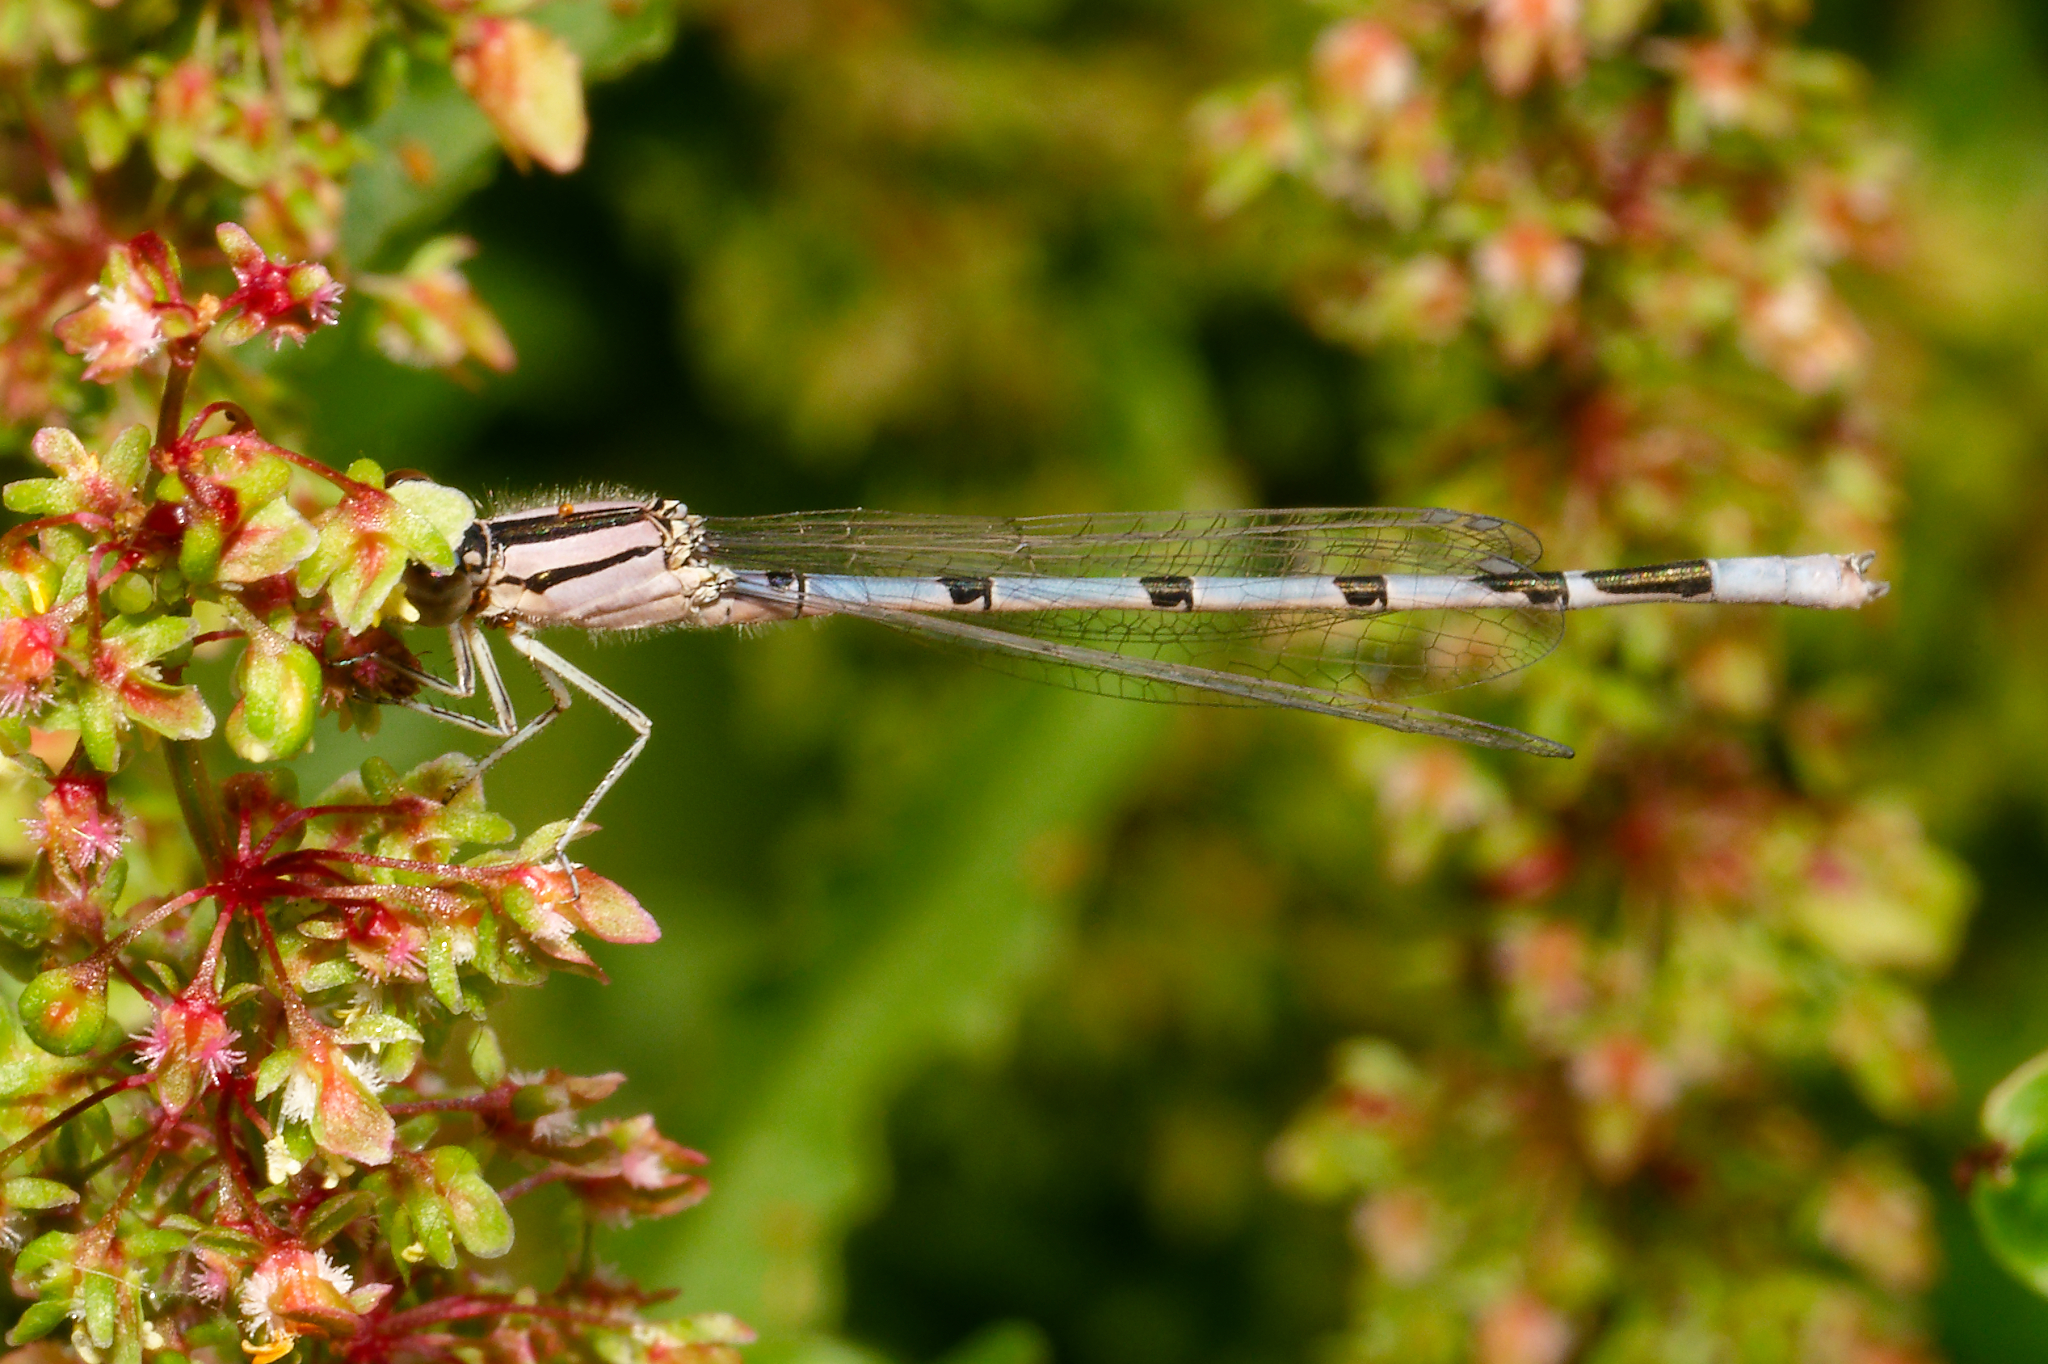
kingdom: Animalia
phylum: Arthropoda
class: Insecta
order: Odonata
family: Coenagrionidae
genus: Enallagma
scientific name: Enallagma civile
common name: Damselfly
